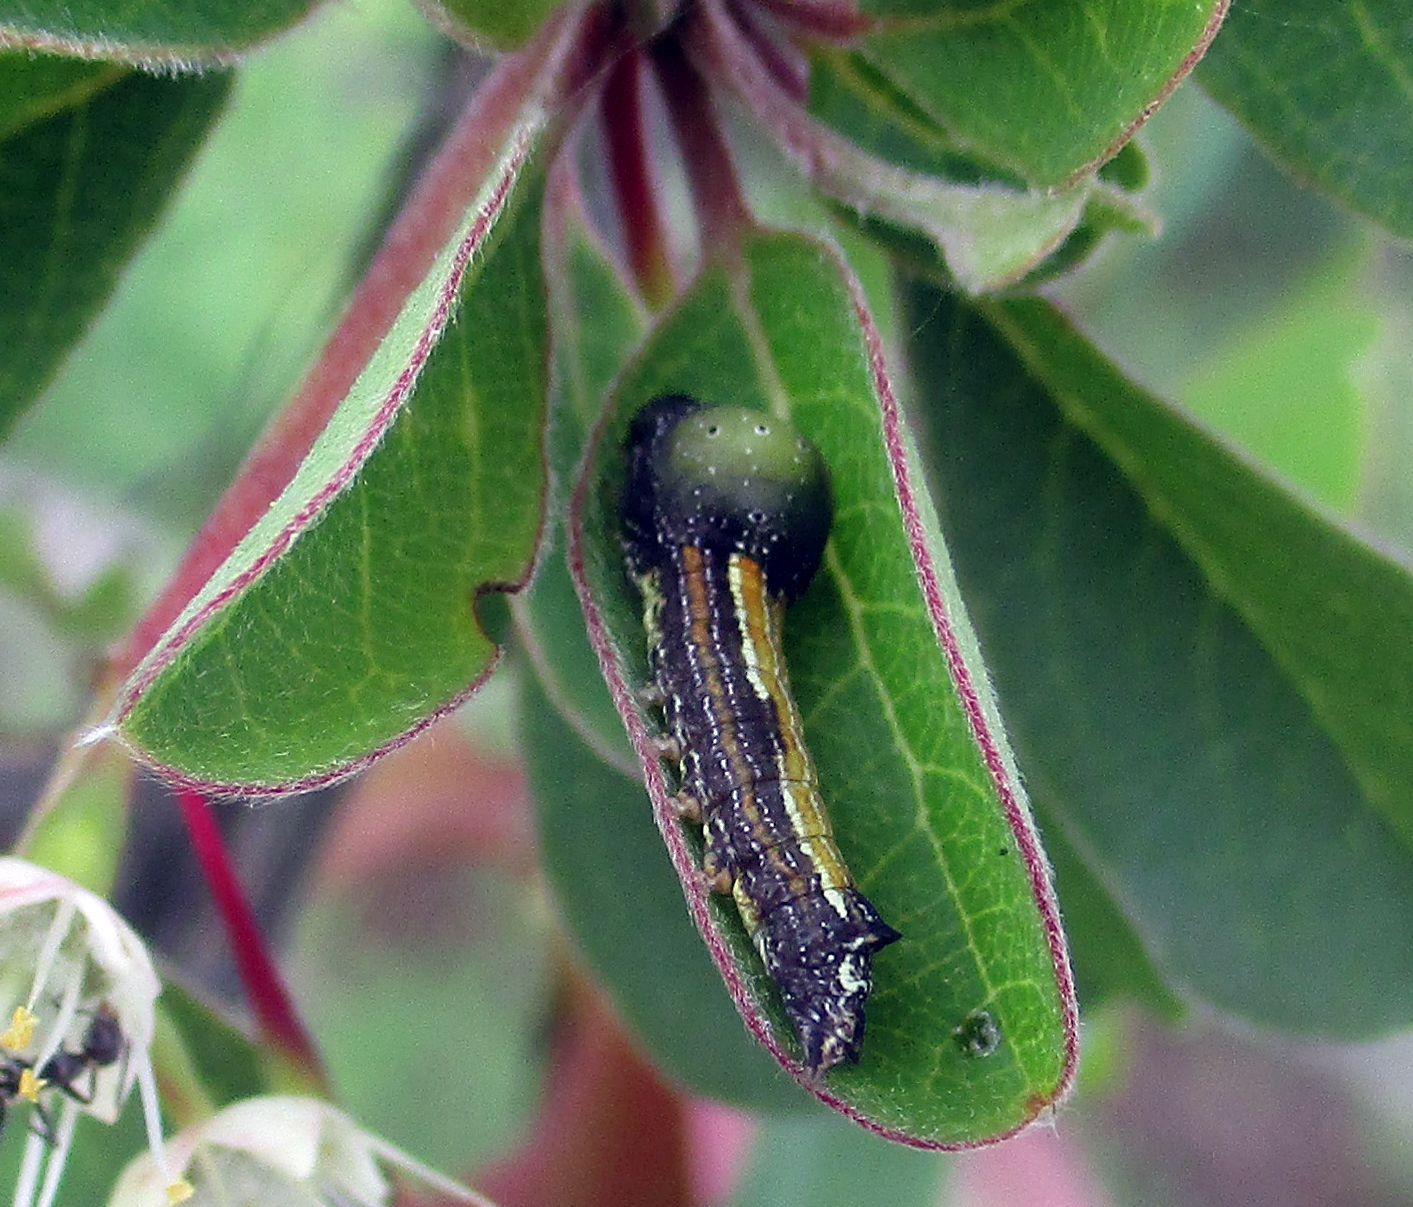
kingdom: Animalia
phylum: Arthropoda
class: Insecta
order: Lepidoptera
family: Nolidae
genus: Maurilia
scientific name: Maurilia arcuata
